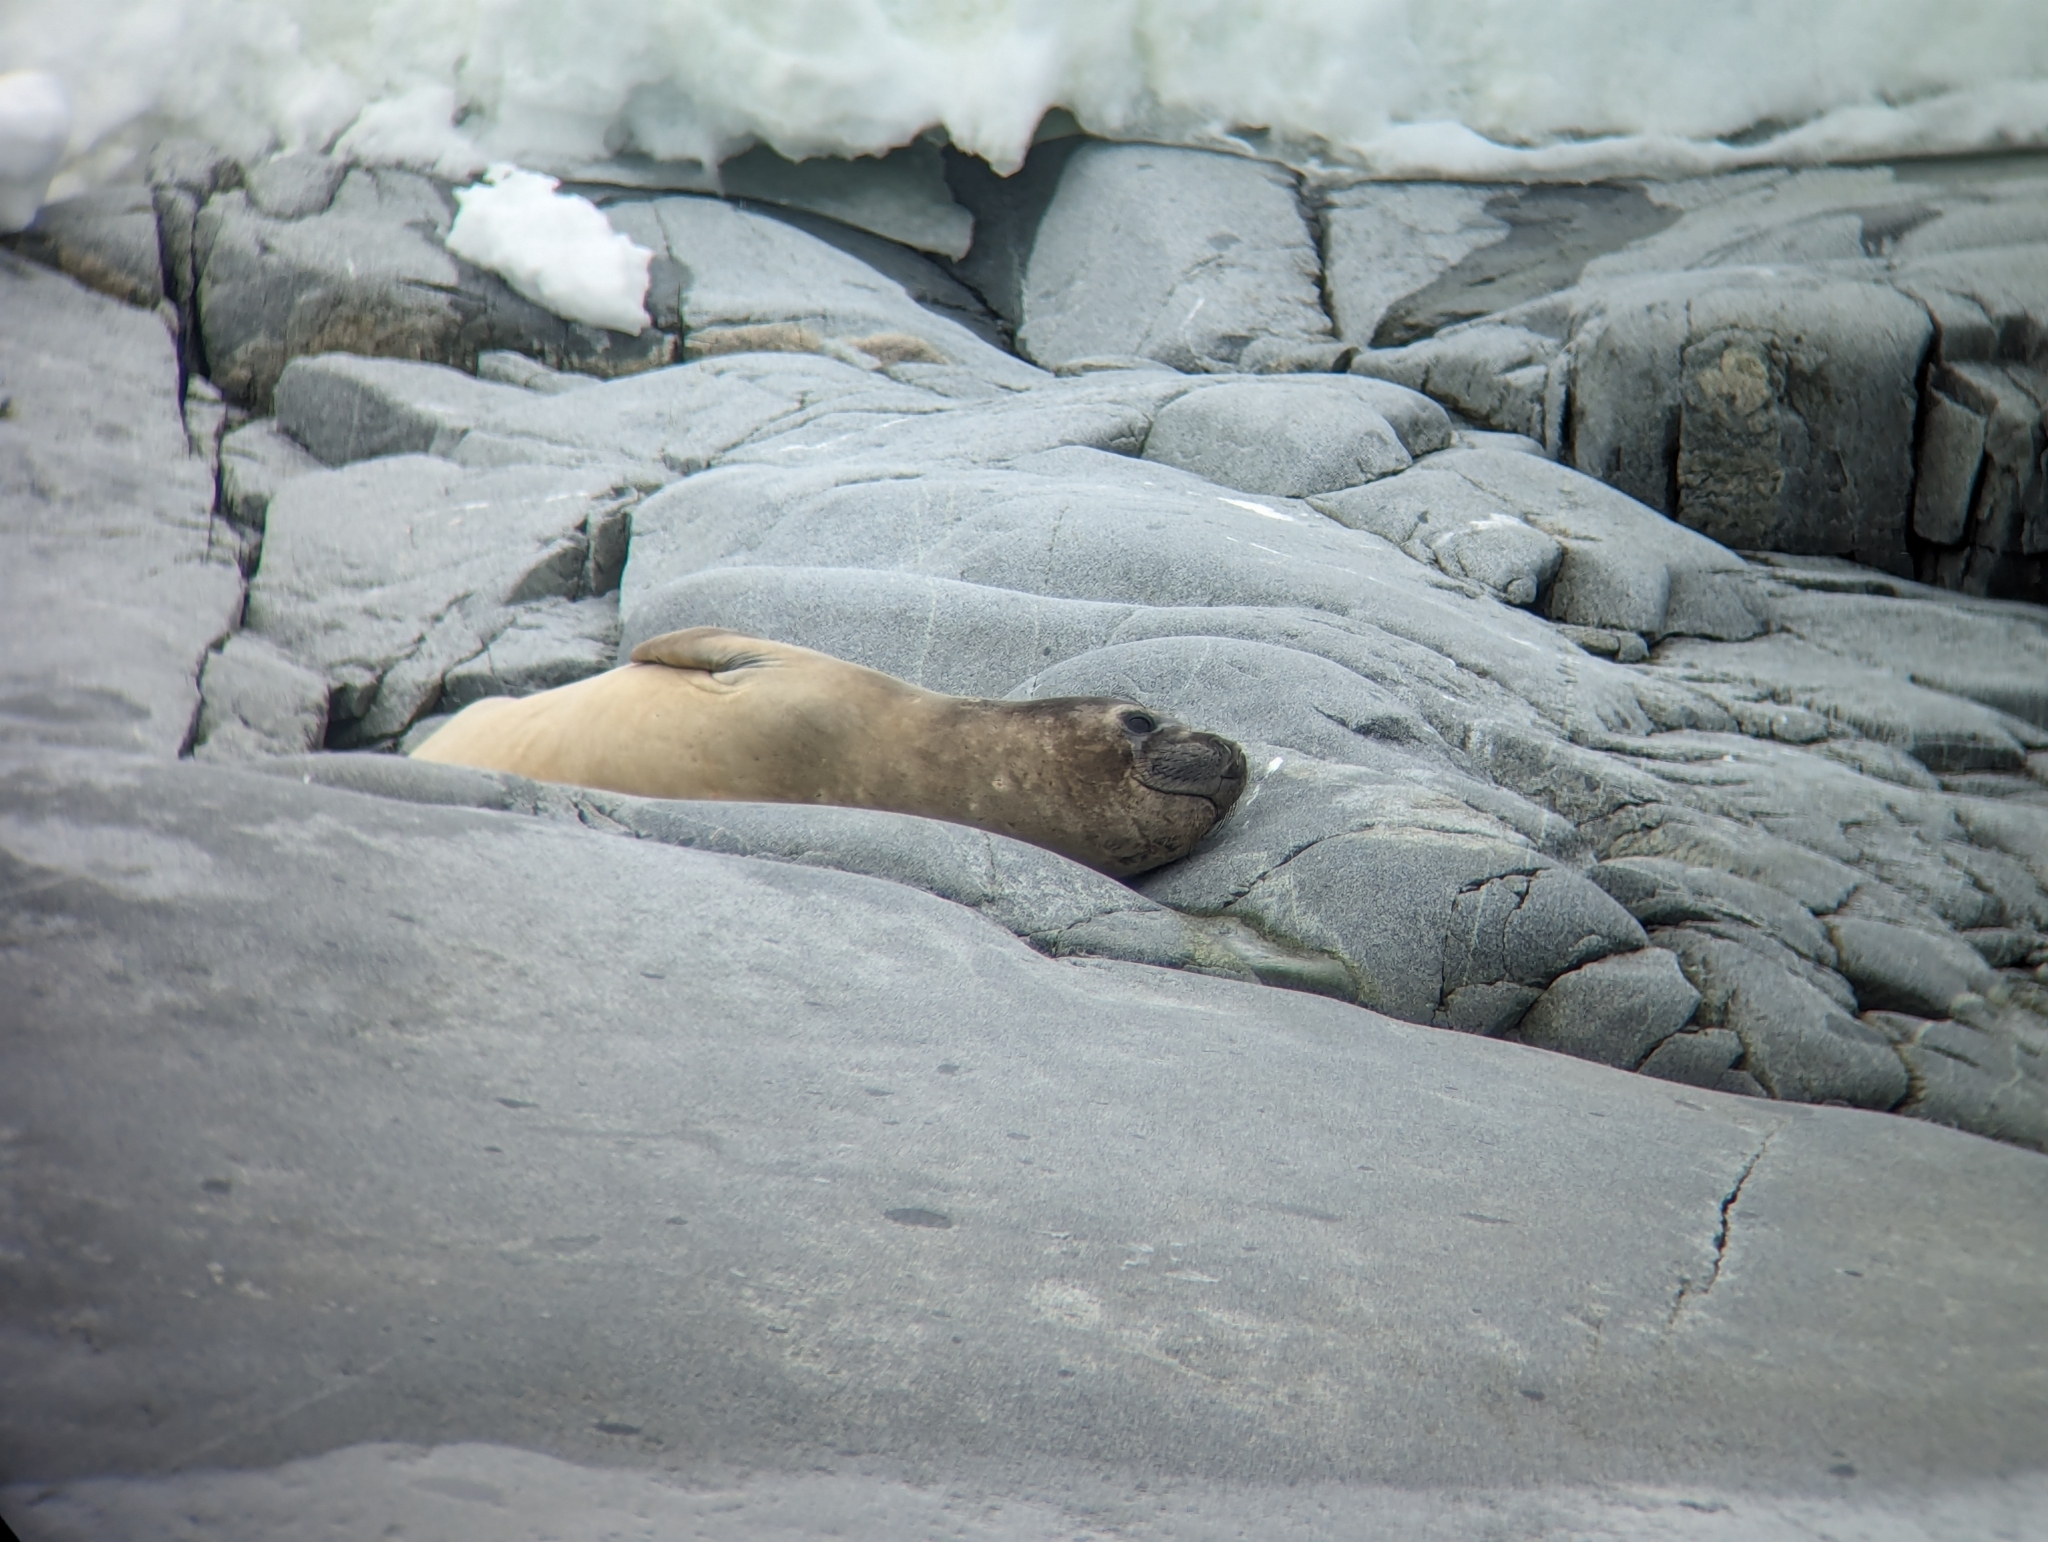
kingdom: Animalia
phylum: Chordata
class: Mammalia
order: Carnivora
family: Phocidae
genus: Mirounga
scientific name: Mirounga leonina
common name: Southern elephant seal
